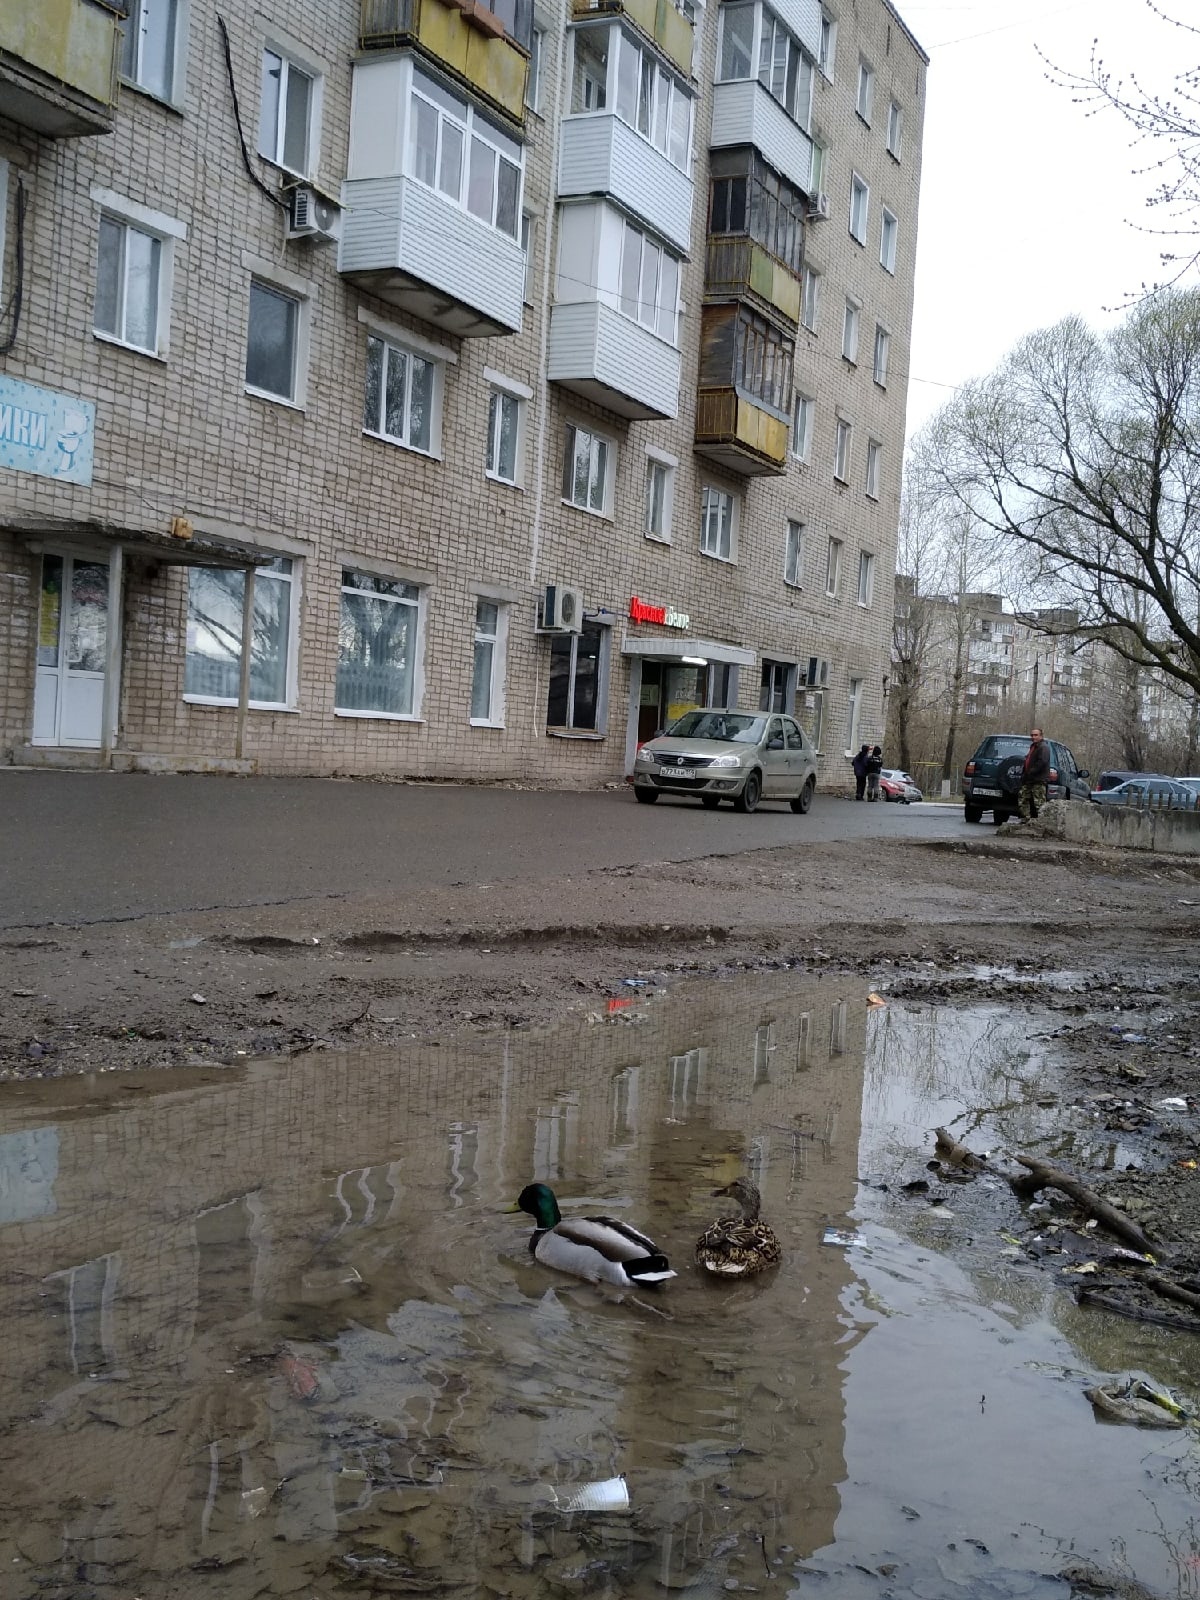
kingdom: Animalia
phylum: Chordata
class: Aves
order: Anseriformes
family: Anatidae
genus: Anas
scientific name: Anas platyrhynchos
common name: Mallard
